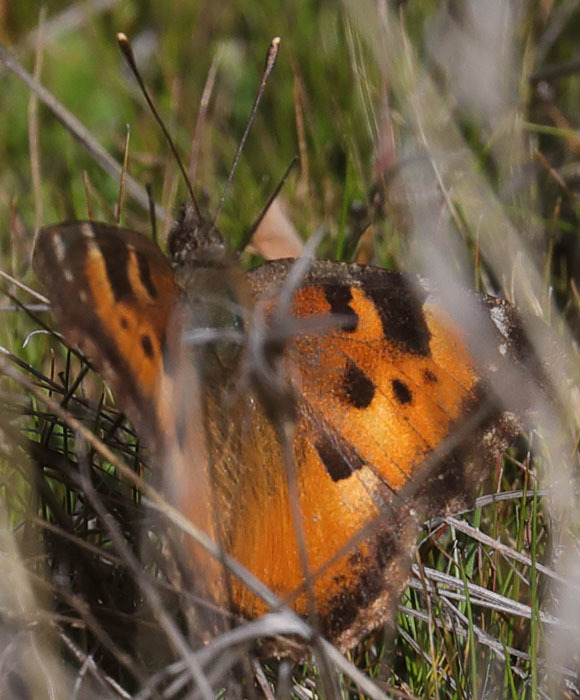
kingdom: Animalia
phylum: Arthropoda
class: Insecta
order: Lepidoptera
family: Nymphalidae
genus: Nymphalis
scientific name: Nymphalis californica
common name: California tortoiseshell
